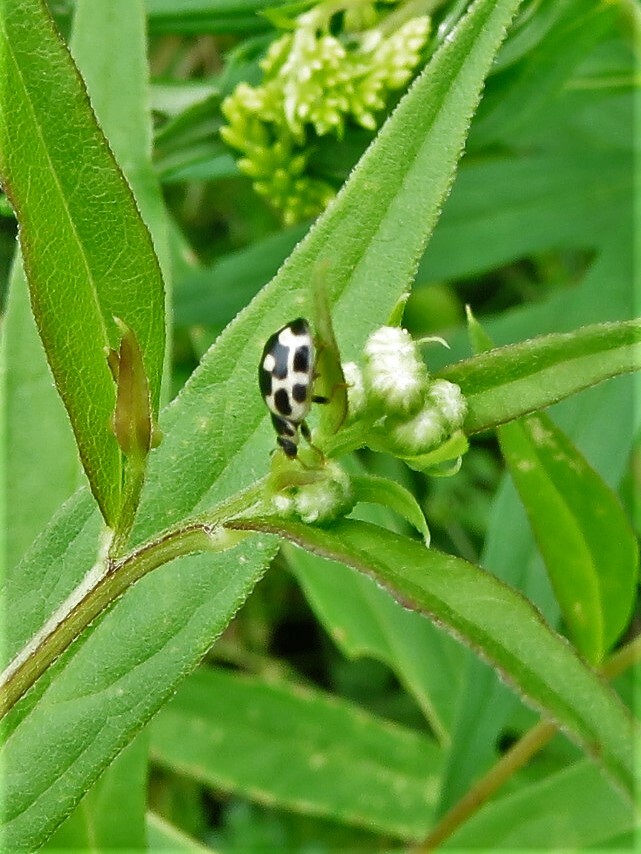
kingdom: Animalia
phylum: Arthropoda
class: Insecta
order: Coleoptera
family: Coccinellidae
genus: Propylaea
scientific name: Propylaea quatuordecimpunctata
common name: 14-spotted ladybird beetle
